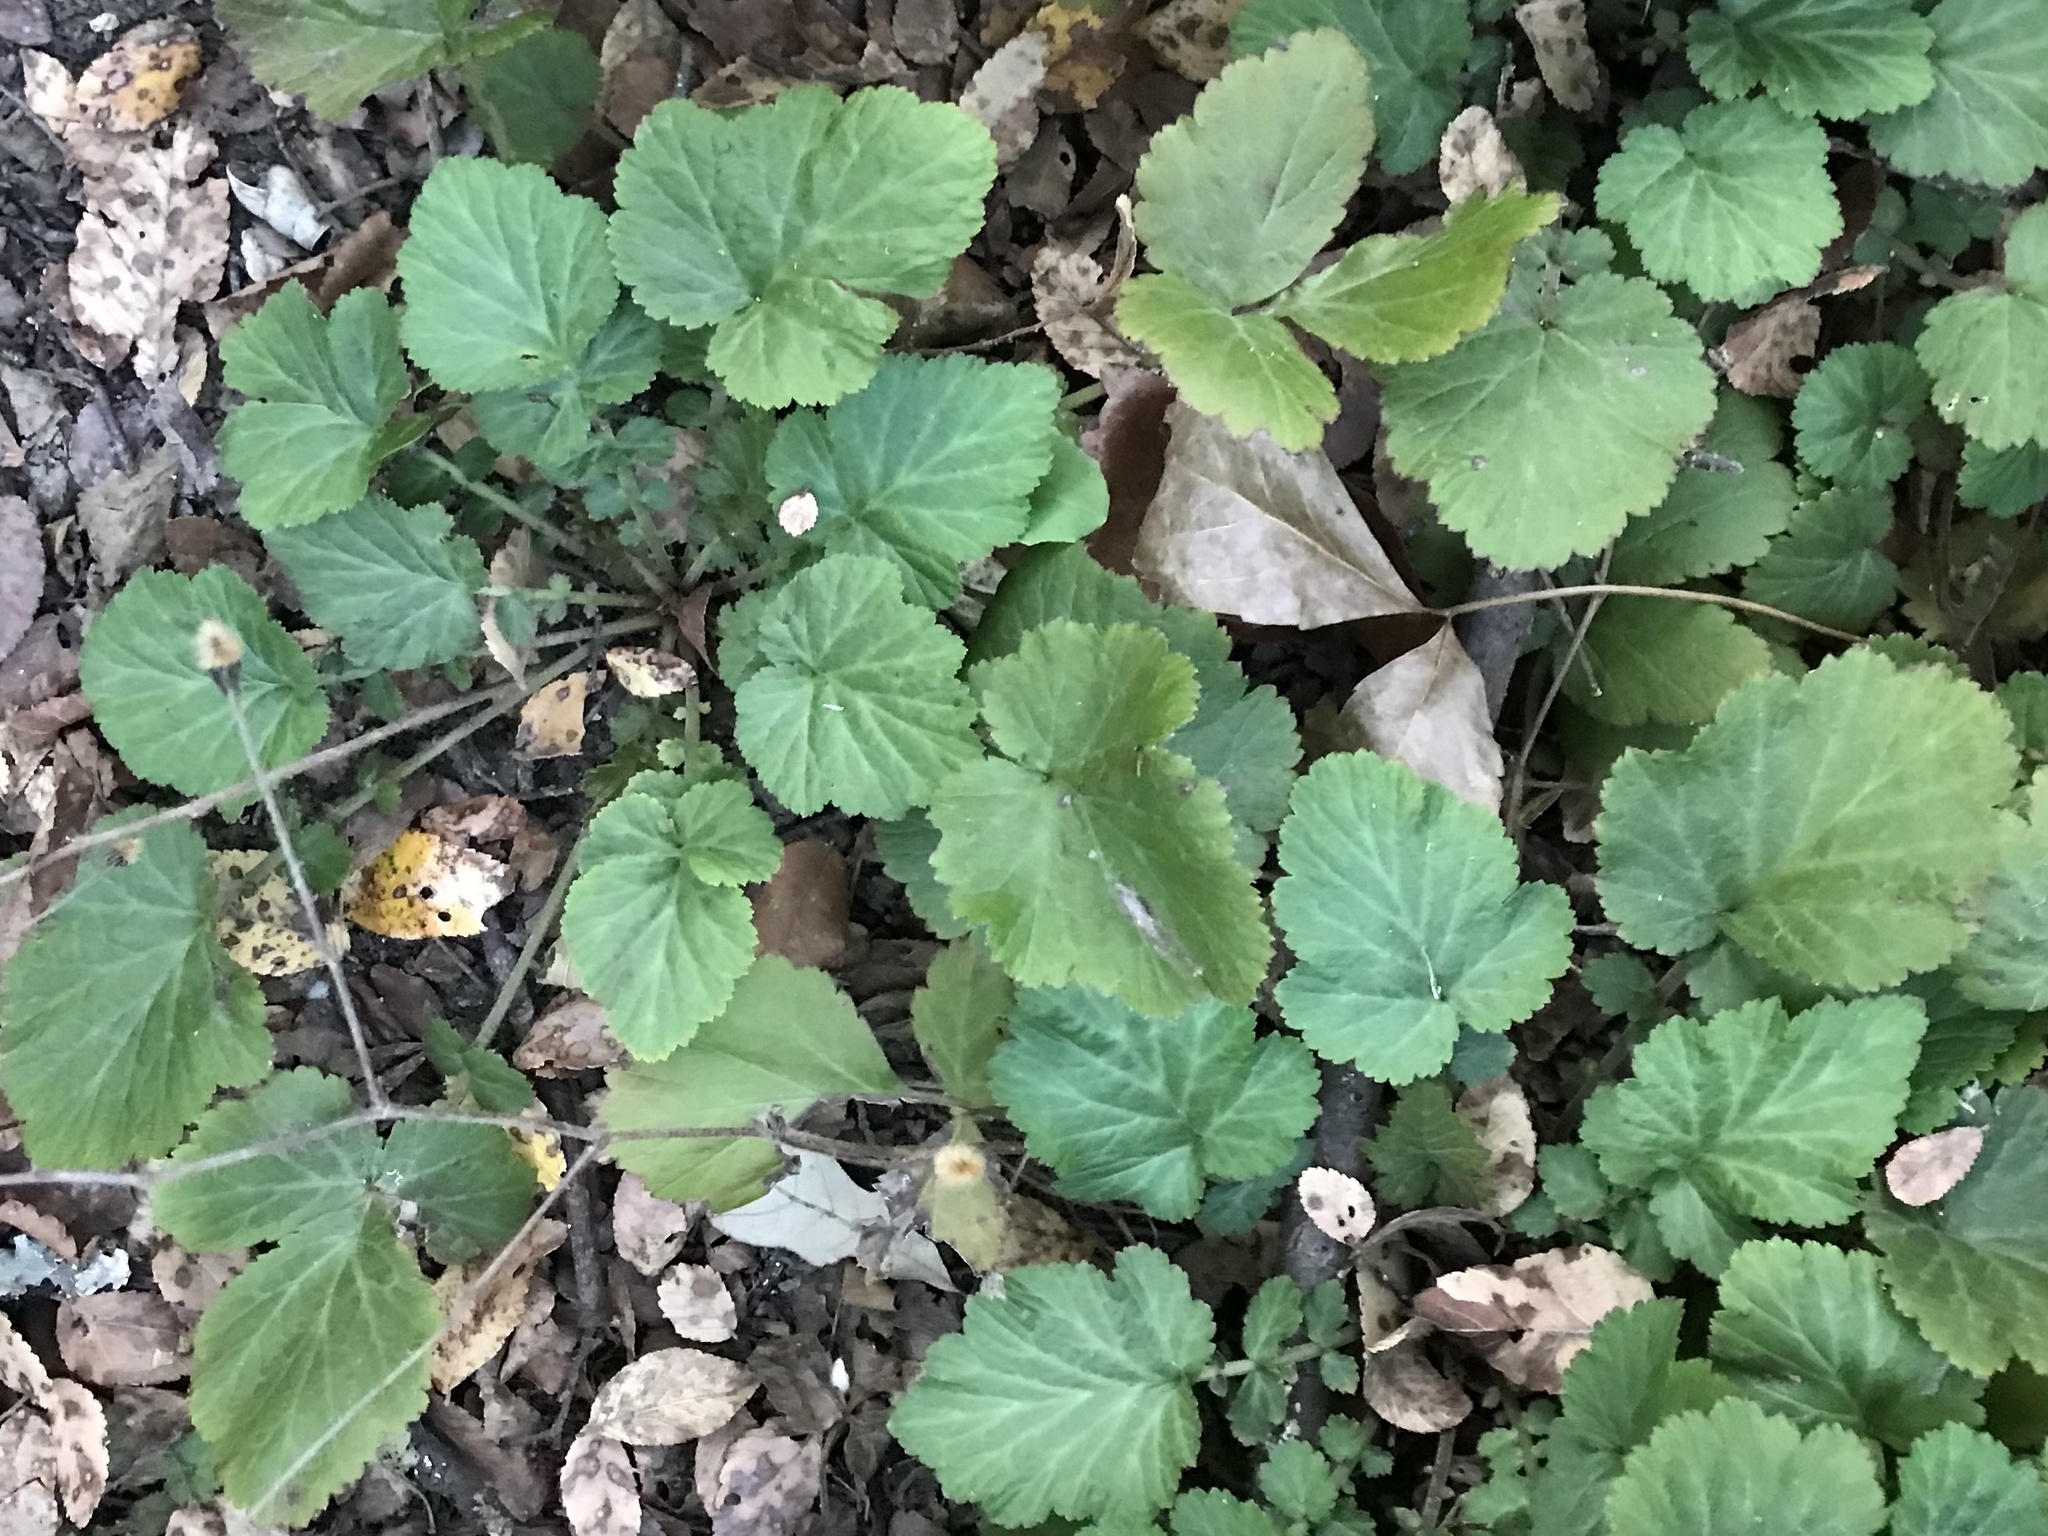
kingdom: Plantae
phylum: Tracheophyta
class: Magnoliopsida
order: Rosales
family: Rosaceae
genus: Geum
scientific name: Geum canadense
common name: White avens
